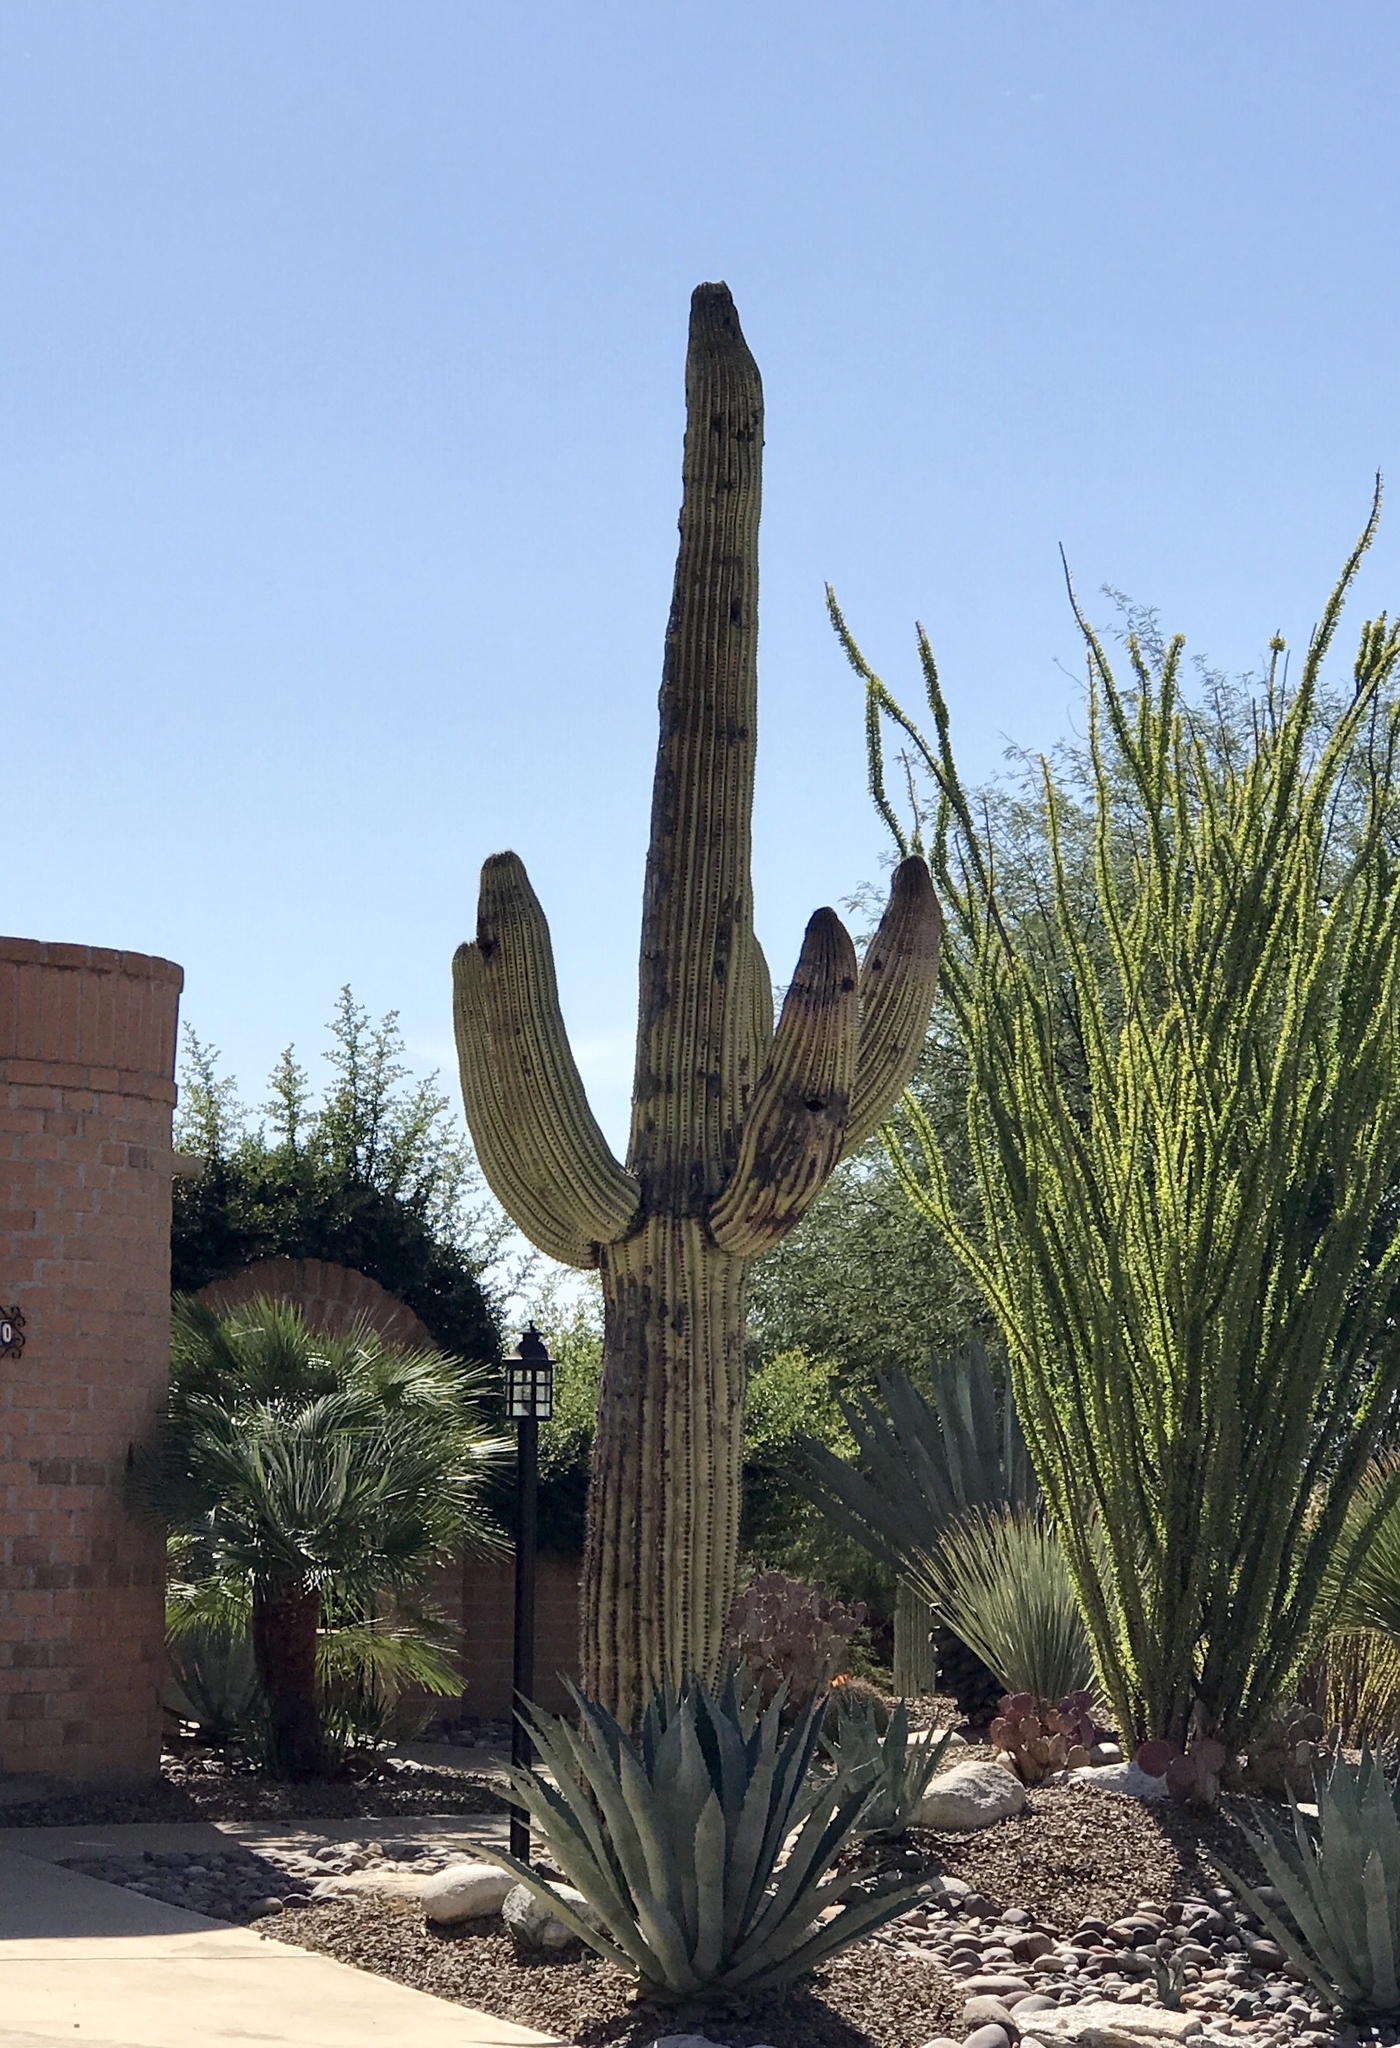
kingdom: Plantae
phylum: Tracheophyta
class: Magnoliopsida
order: Caryophyllales
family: Cactaceae
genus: Carnegiea
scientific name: Carnegiea gigantea
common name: Saguaro
